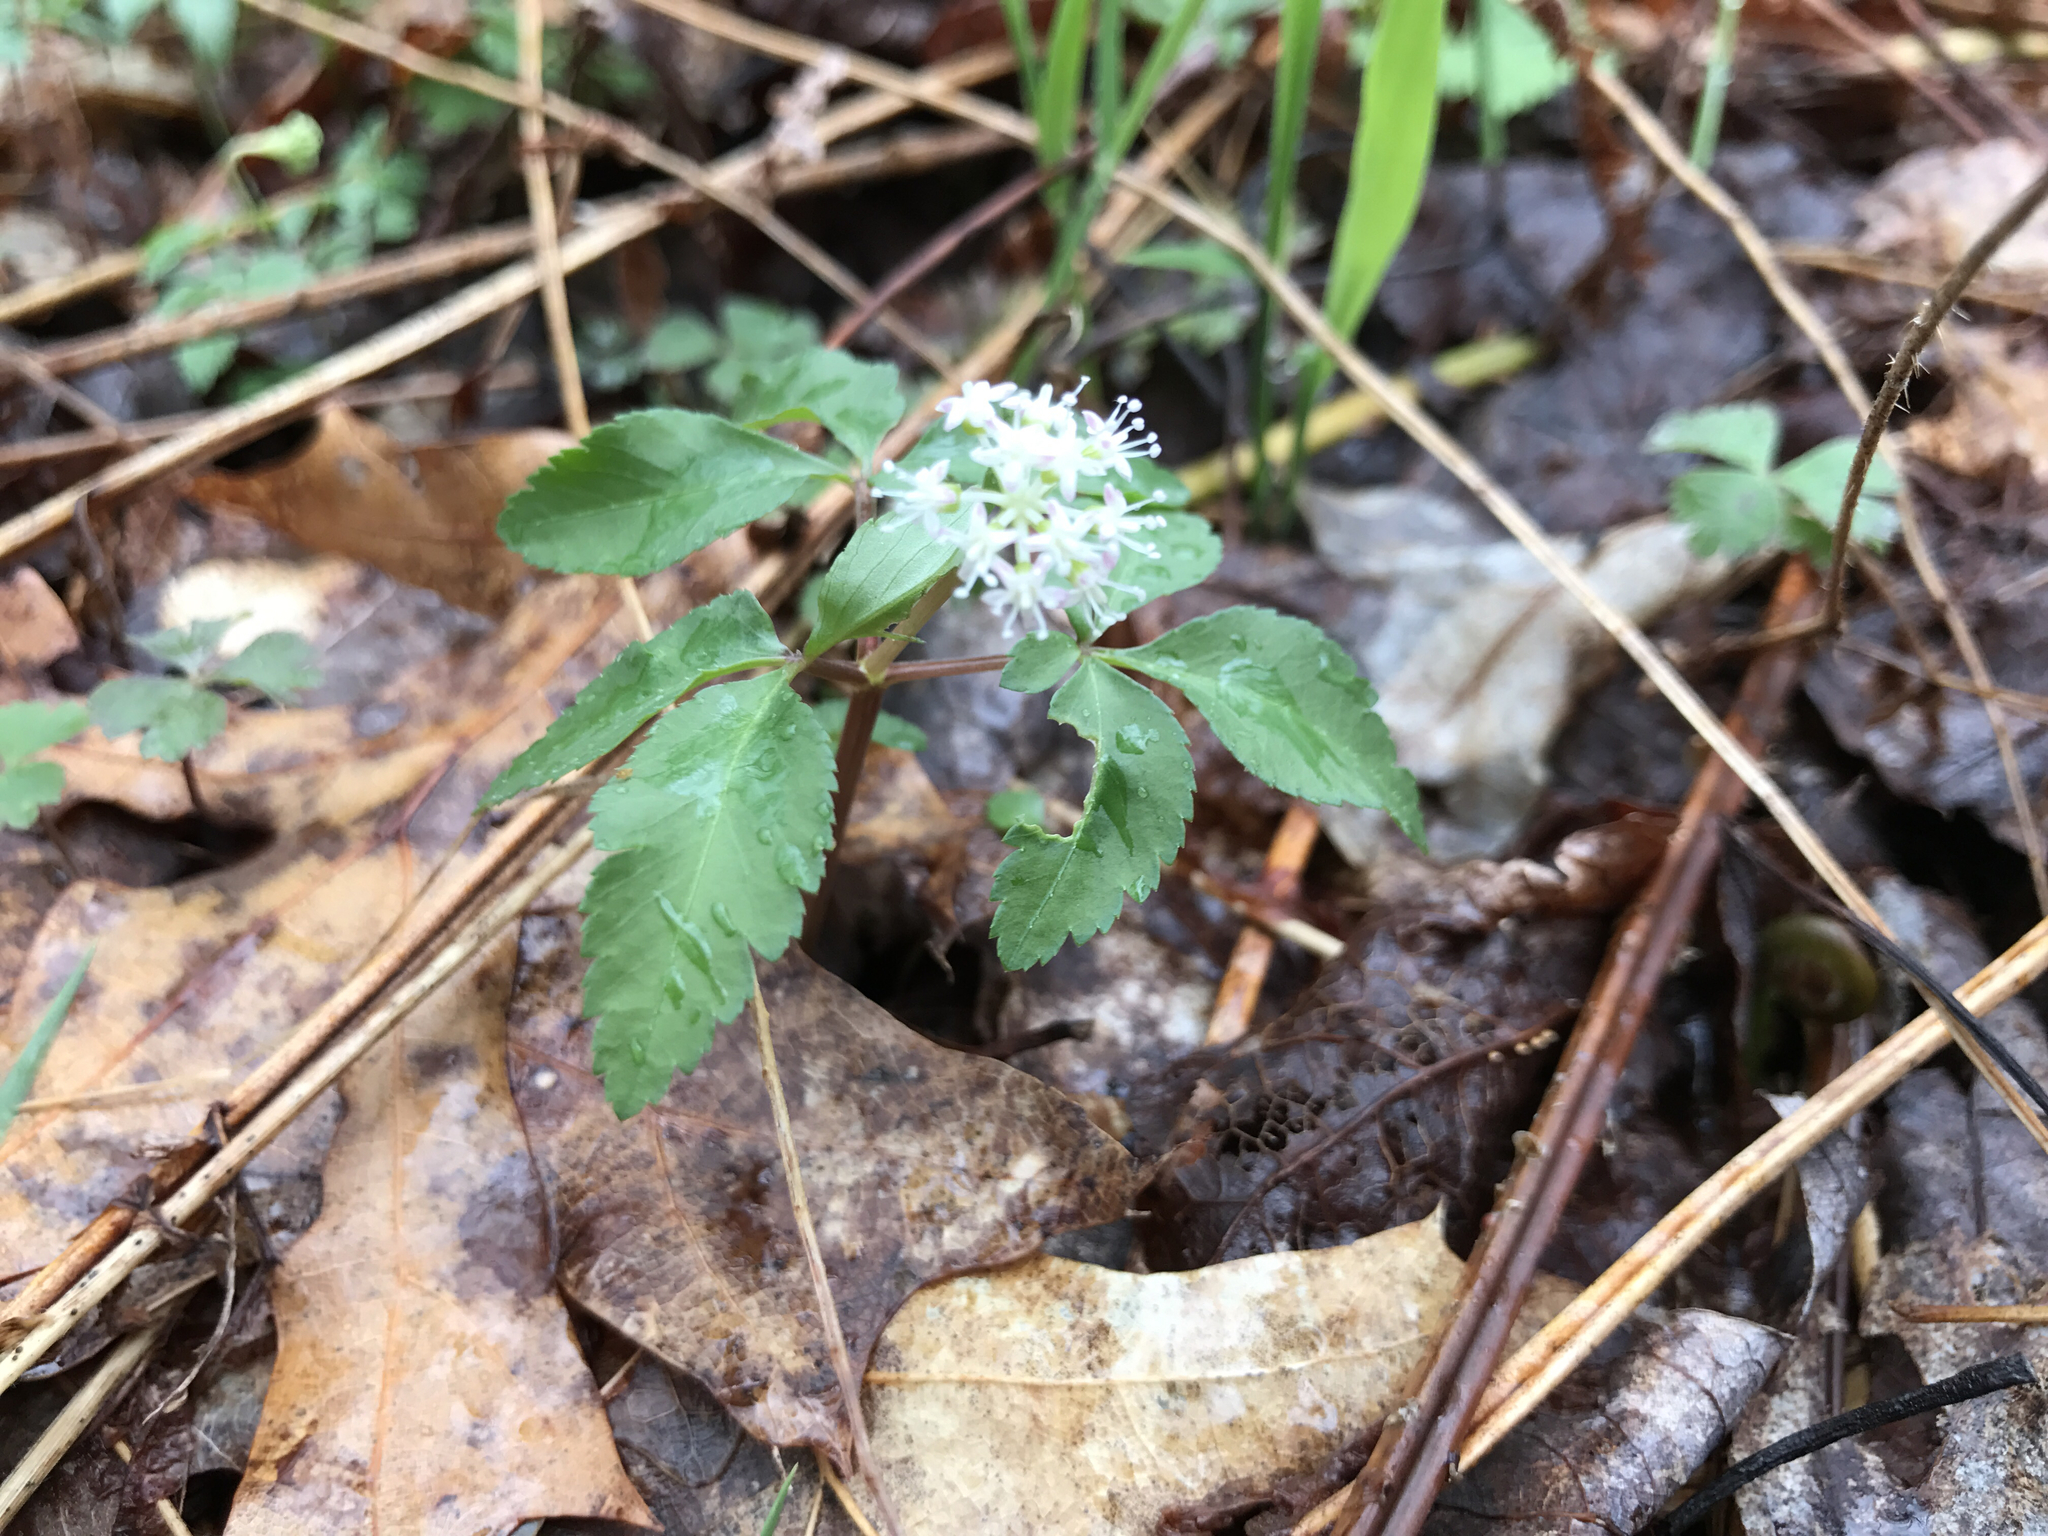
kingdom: Plantae
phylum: Tracheophyta
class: Magnoliopsida
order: Apiales
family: Araliaceae
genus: Panax
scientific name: Panax trifolius
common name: Dwarf ginseng
